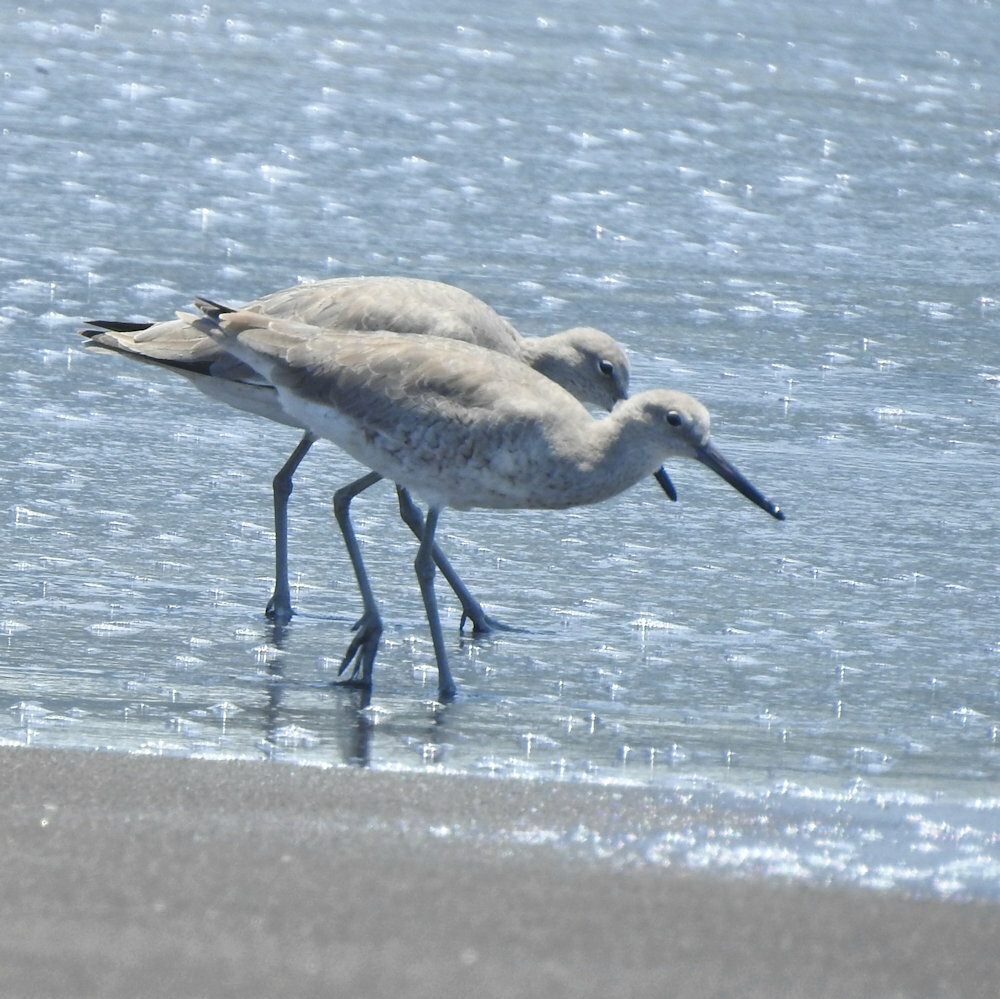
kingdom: Animalia
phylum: Chordata
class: Aves
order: Charadriiformes
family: Scolopacidae
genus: Tringa
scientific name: Tringa semipalmata
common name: Willet
